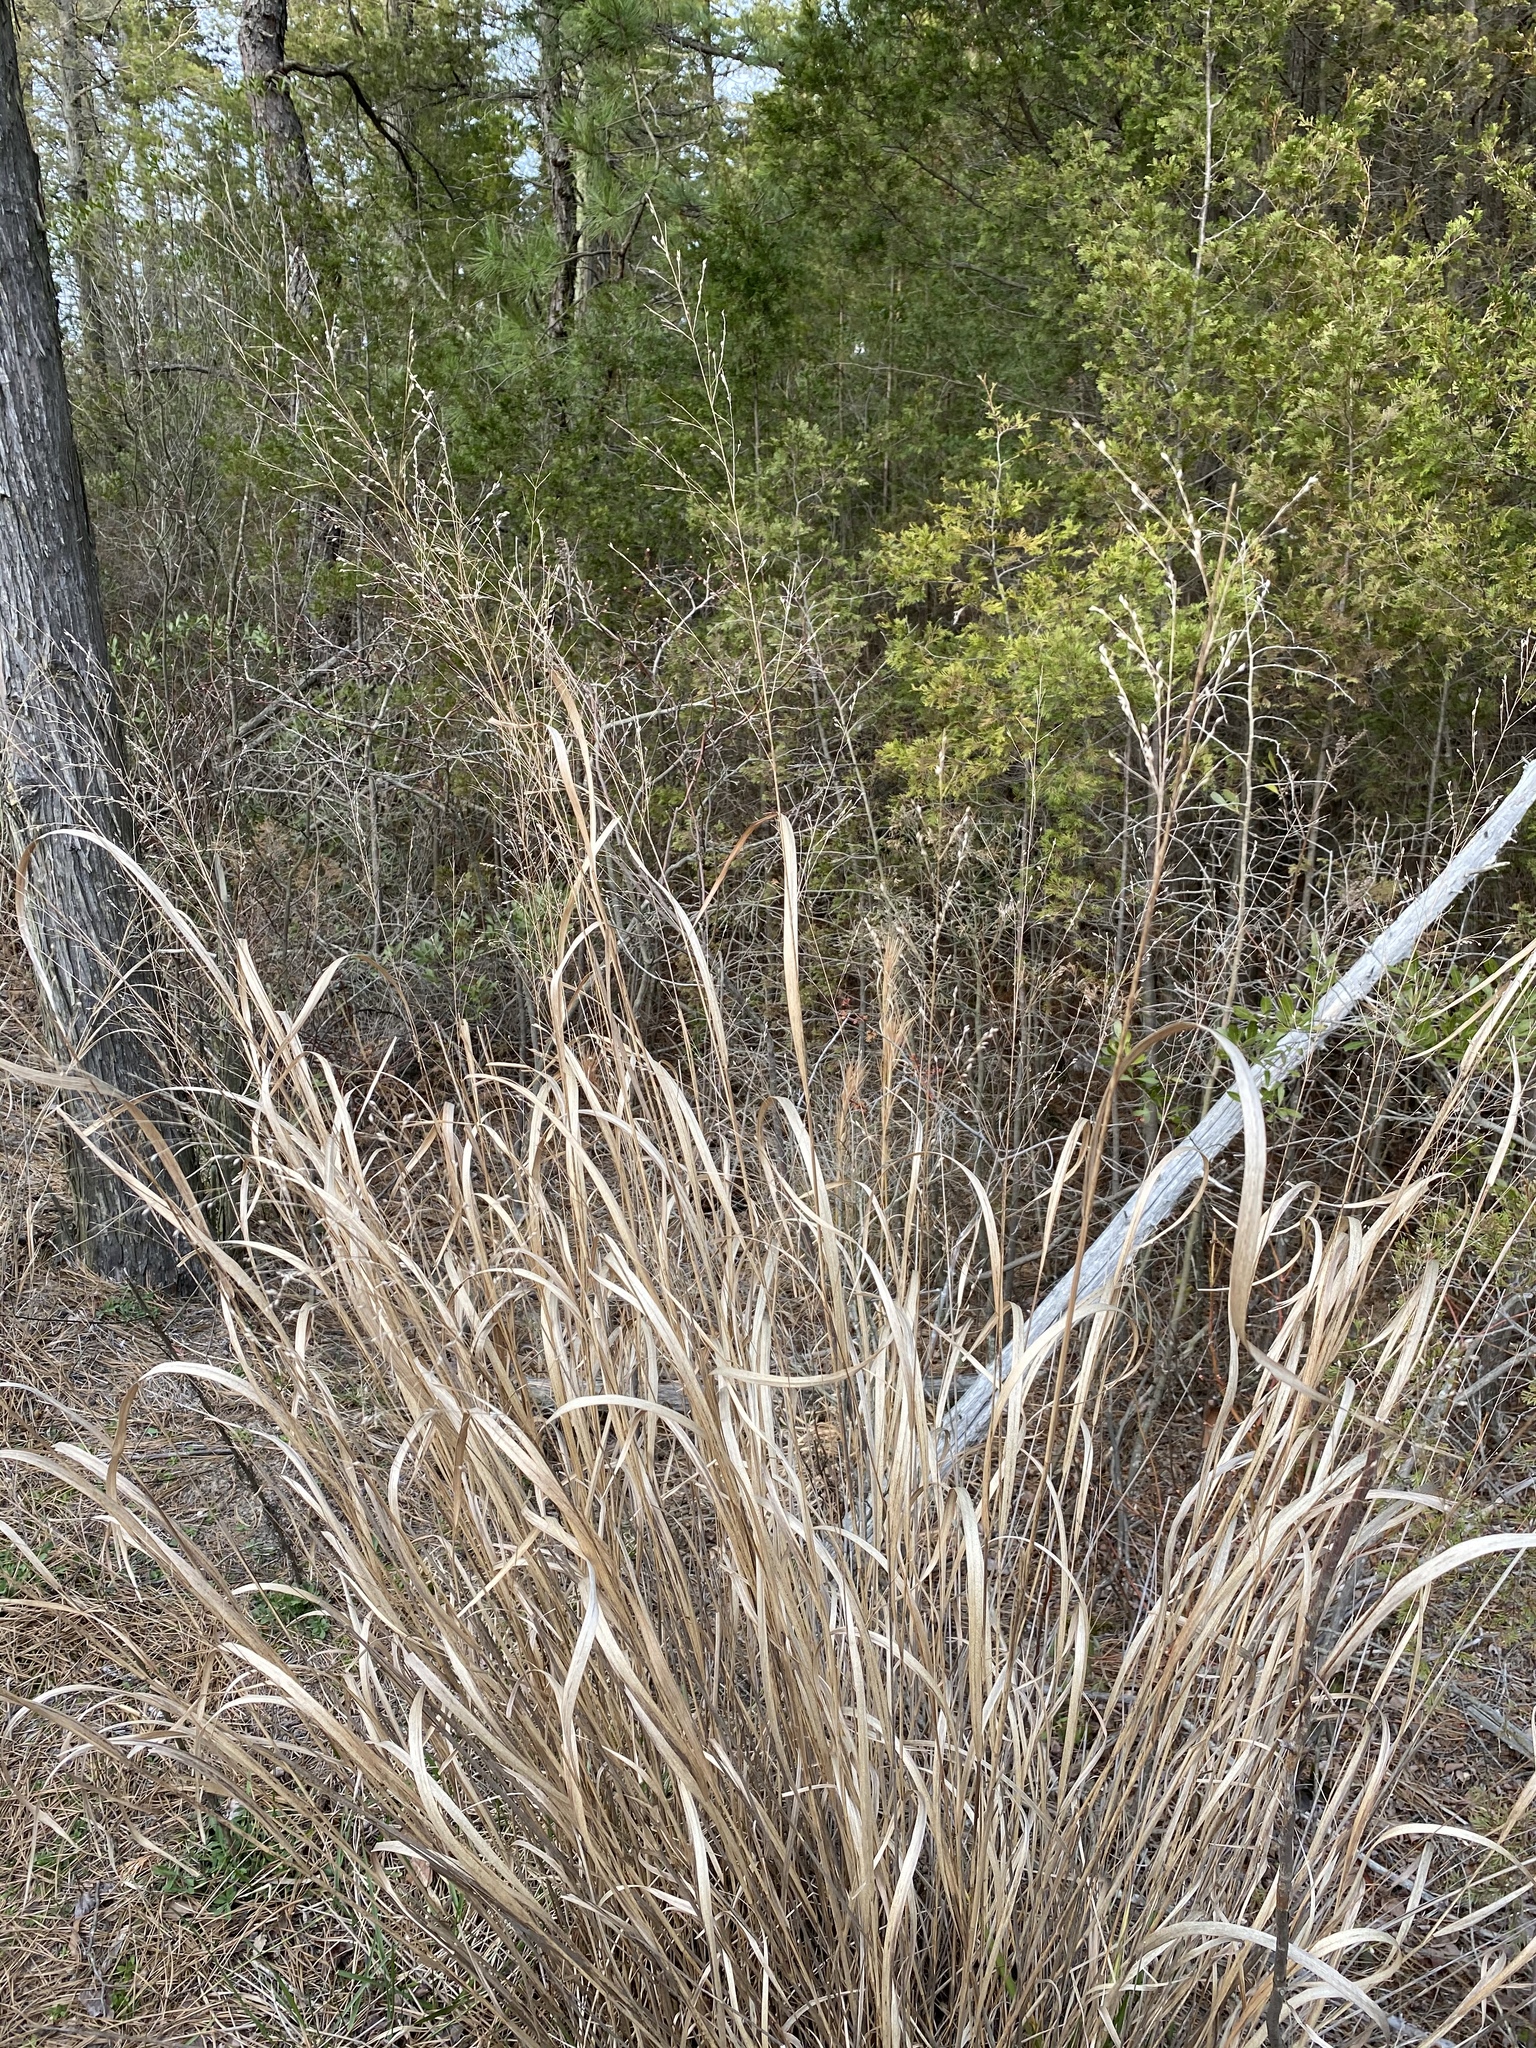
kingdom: Plantae
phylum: Tracheophyta
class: Liliopsida
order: Poales
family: Poaceae
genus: Panicum
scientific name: Panicum virgatum
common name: Switchgrass
